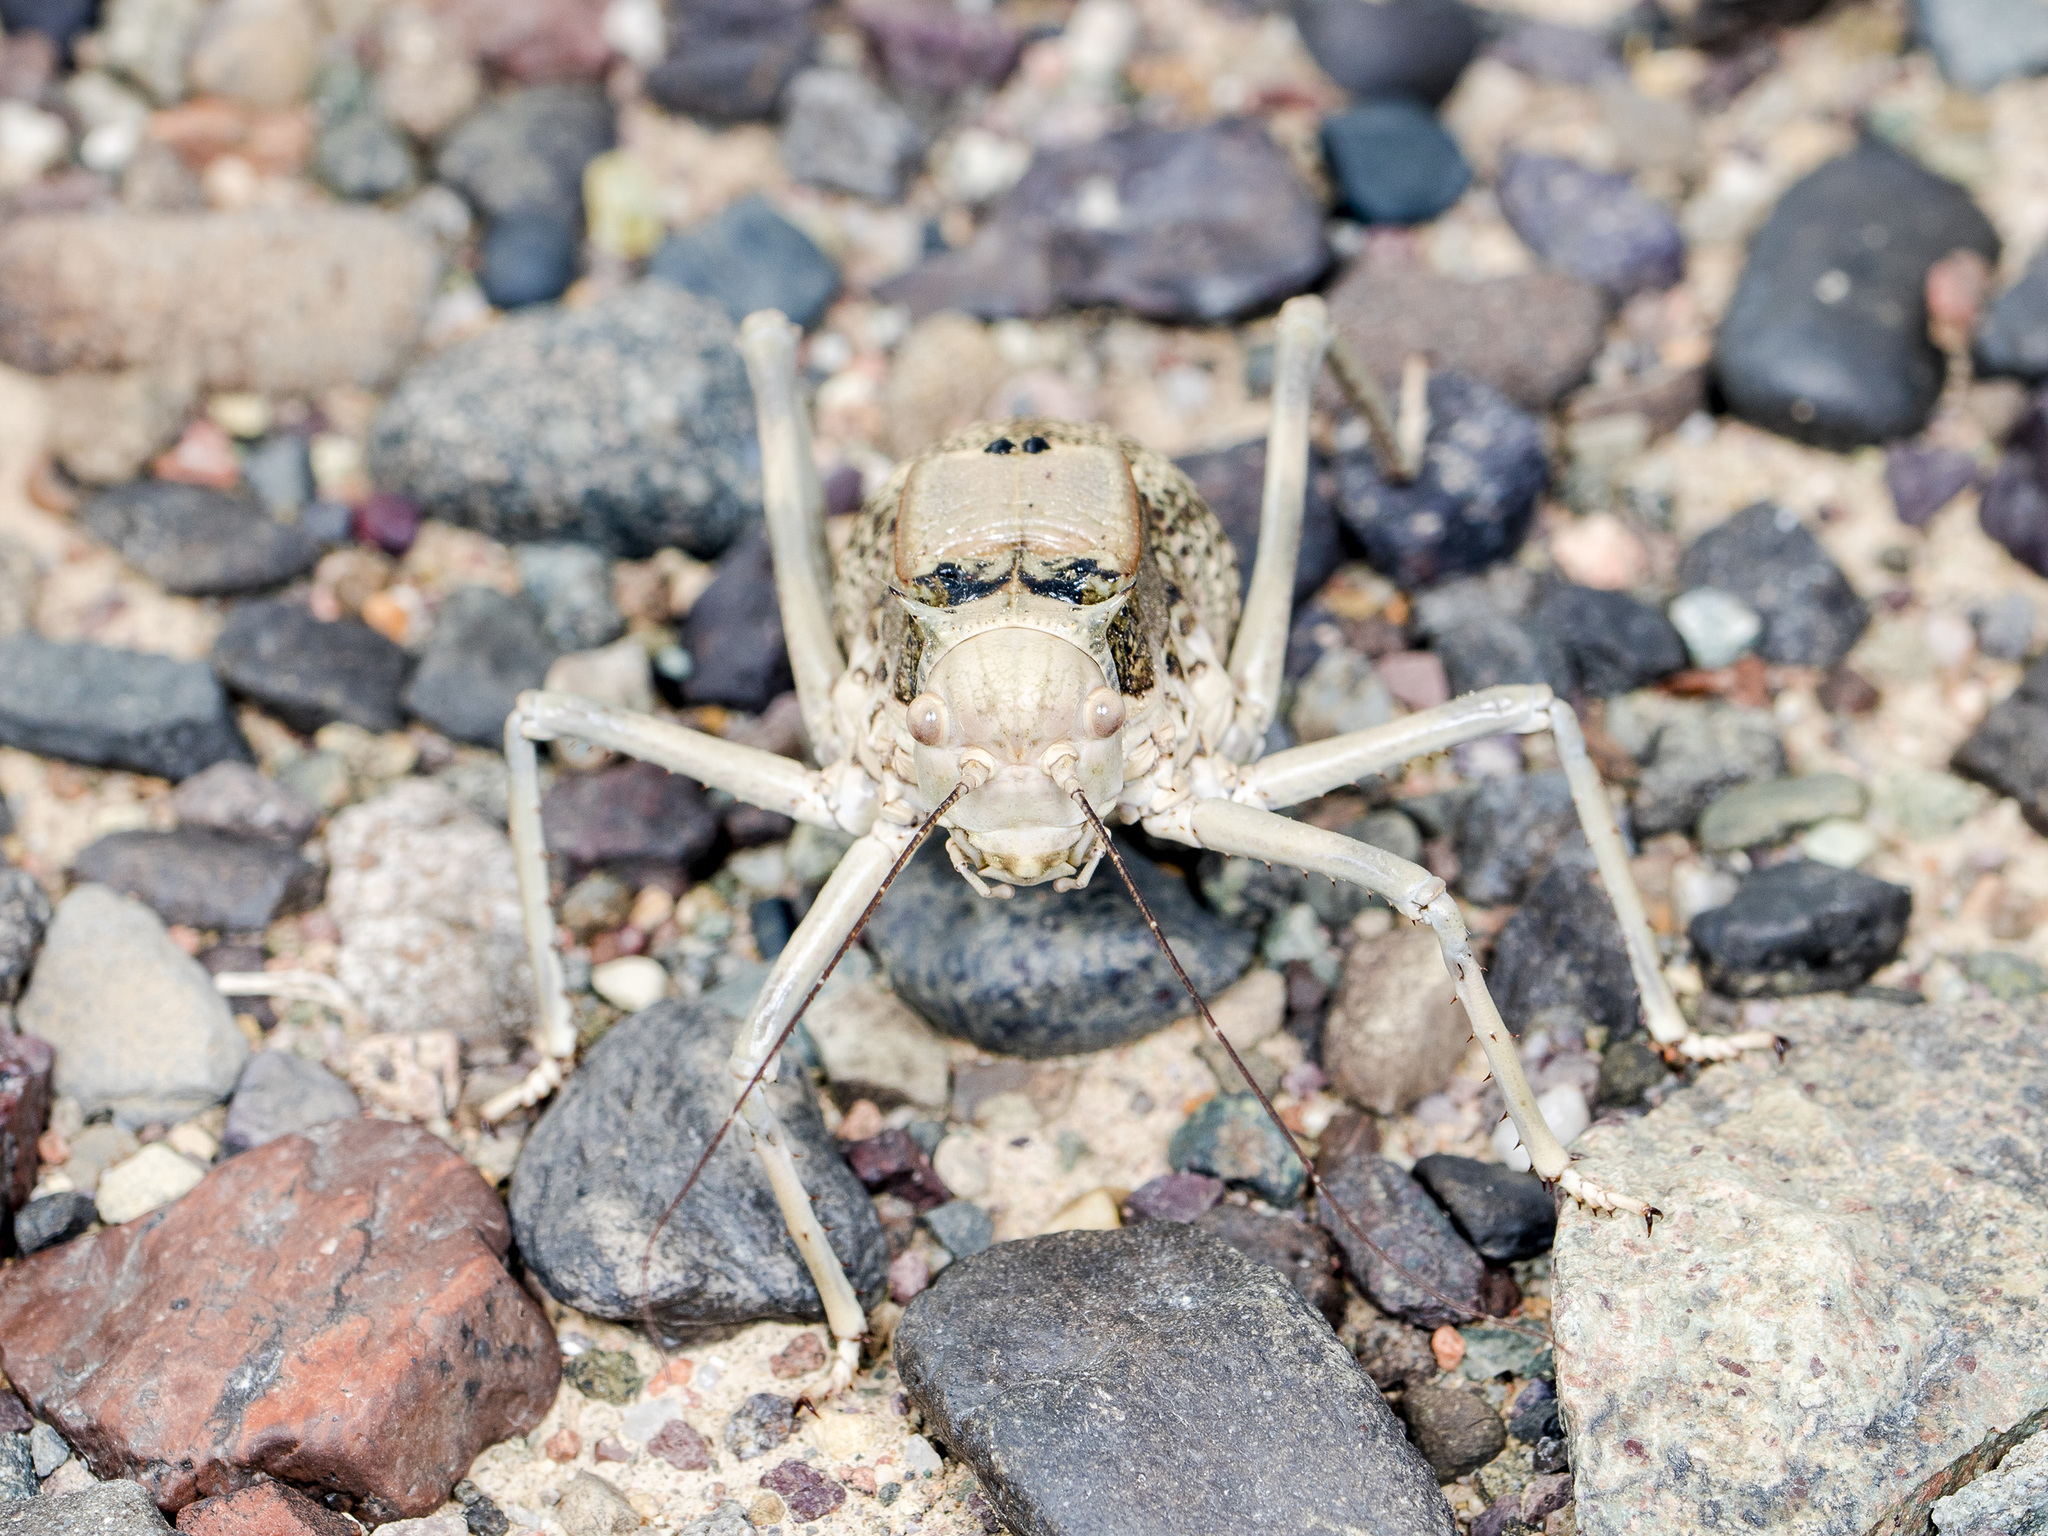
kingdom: Animalia
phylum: Arthropoda
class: Insecta
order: Orthoptera
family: Tettigoniidae
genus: Damalacantha
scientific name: Damalacantha vacca
